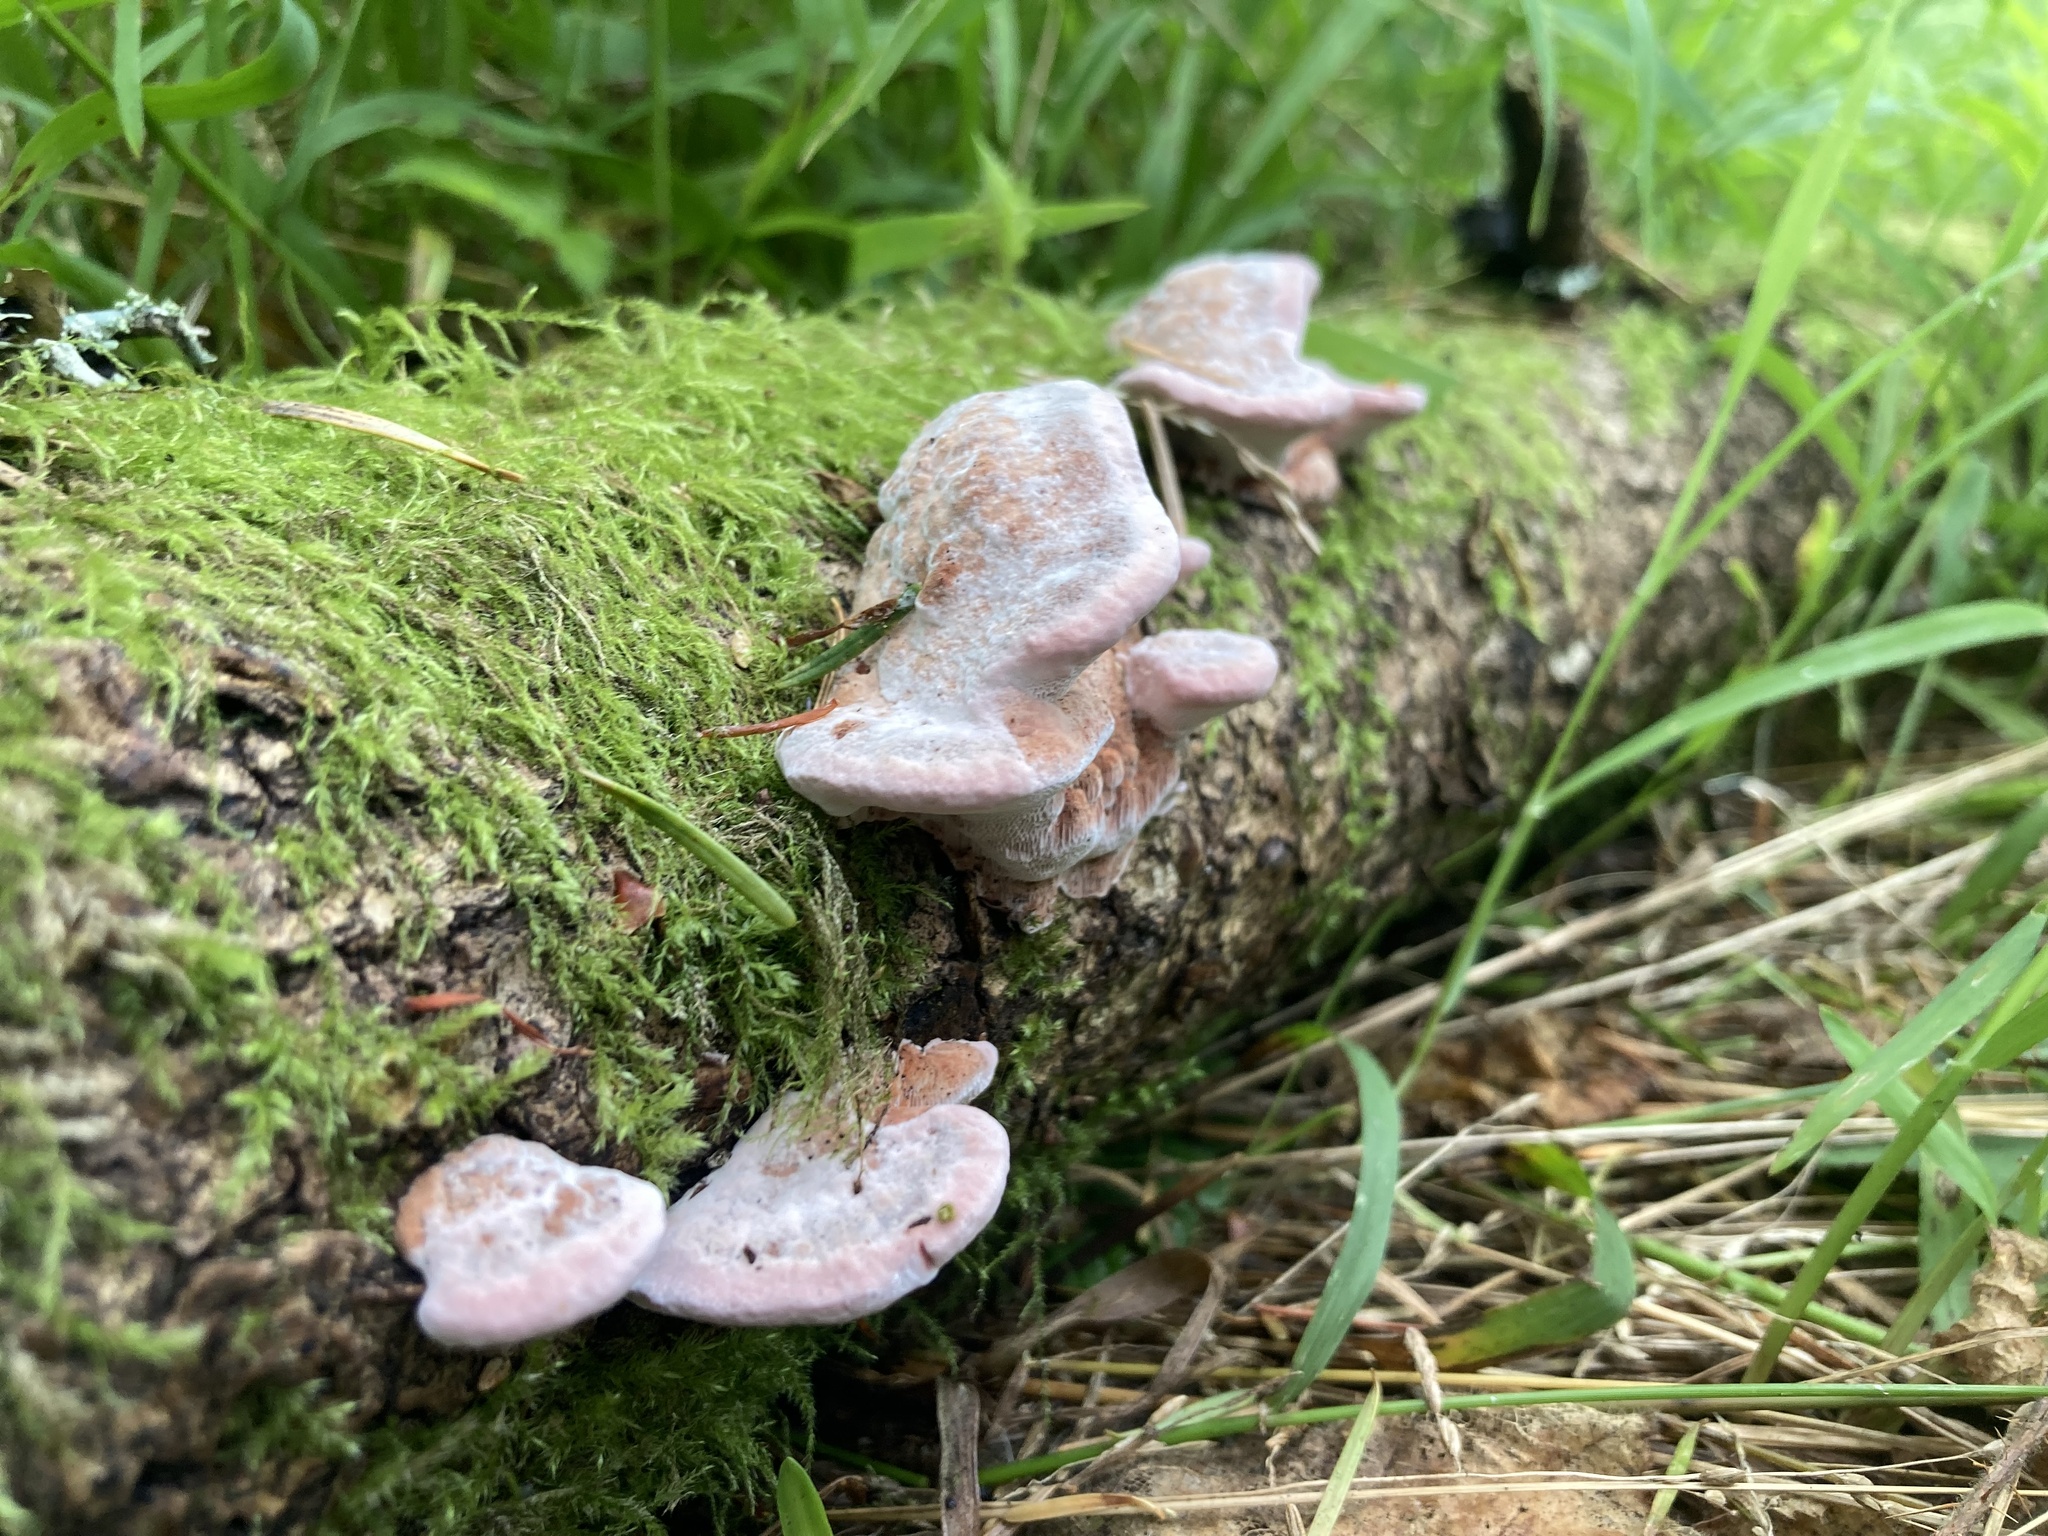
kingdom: Fungi
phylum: Basidiomycota
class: Agaricomycetes
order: Polyporales
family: Fomitopsidaceae
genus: Rhodofomes
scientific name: Rhodofomes cajanderi
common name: Rosy conk
